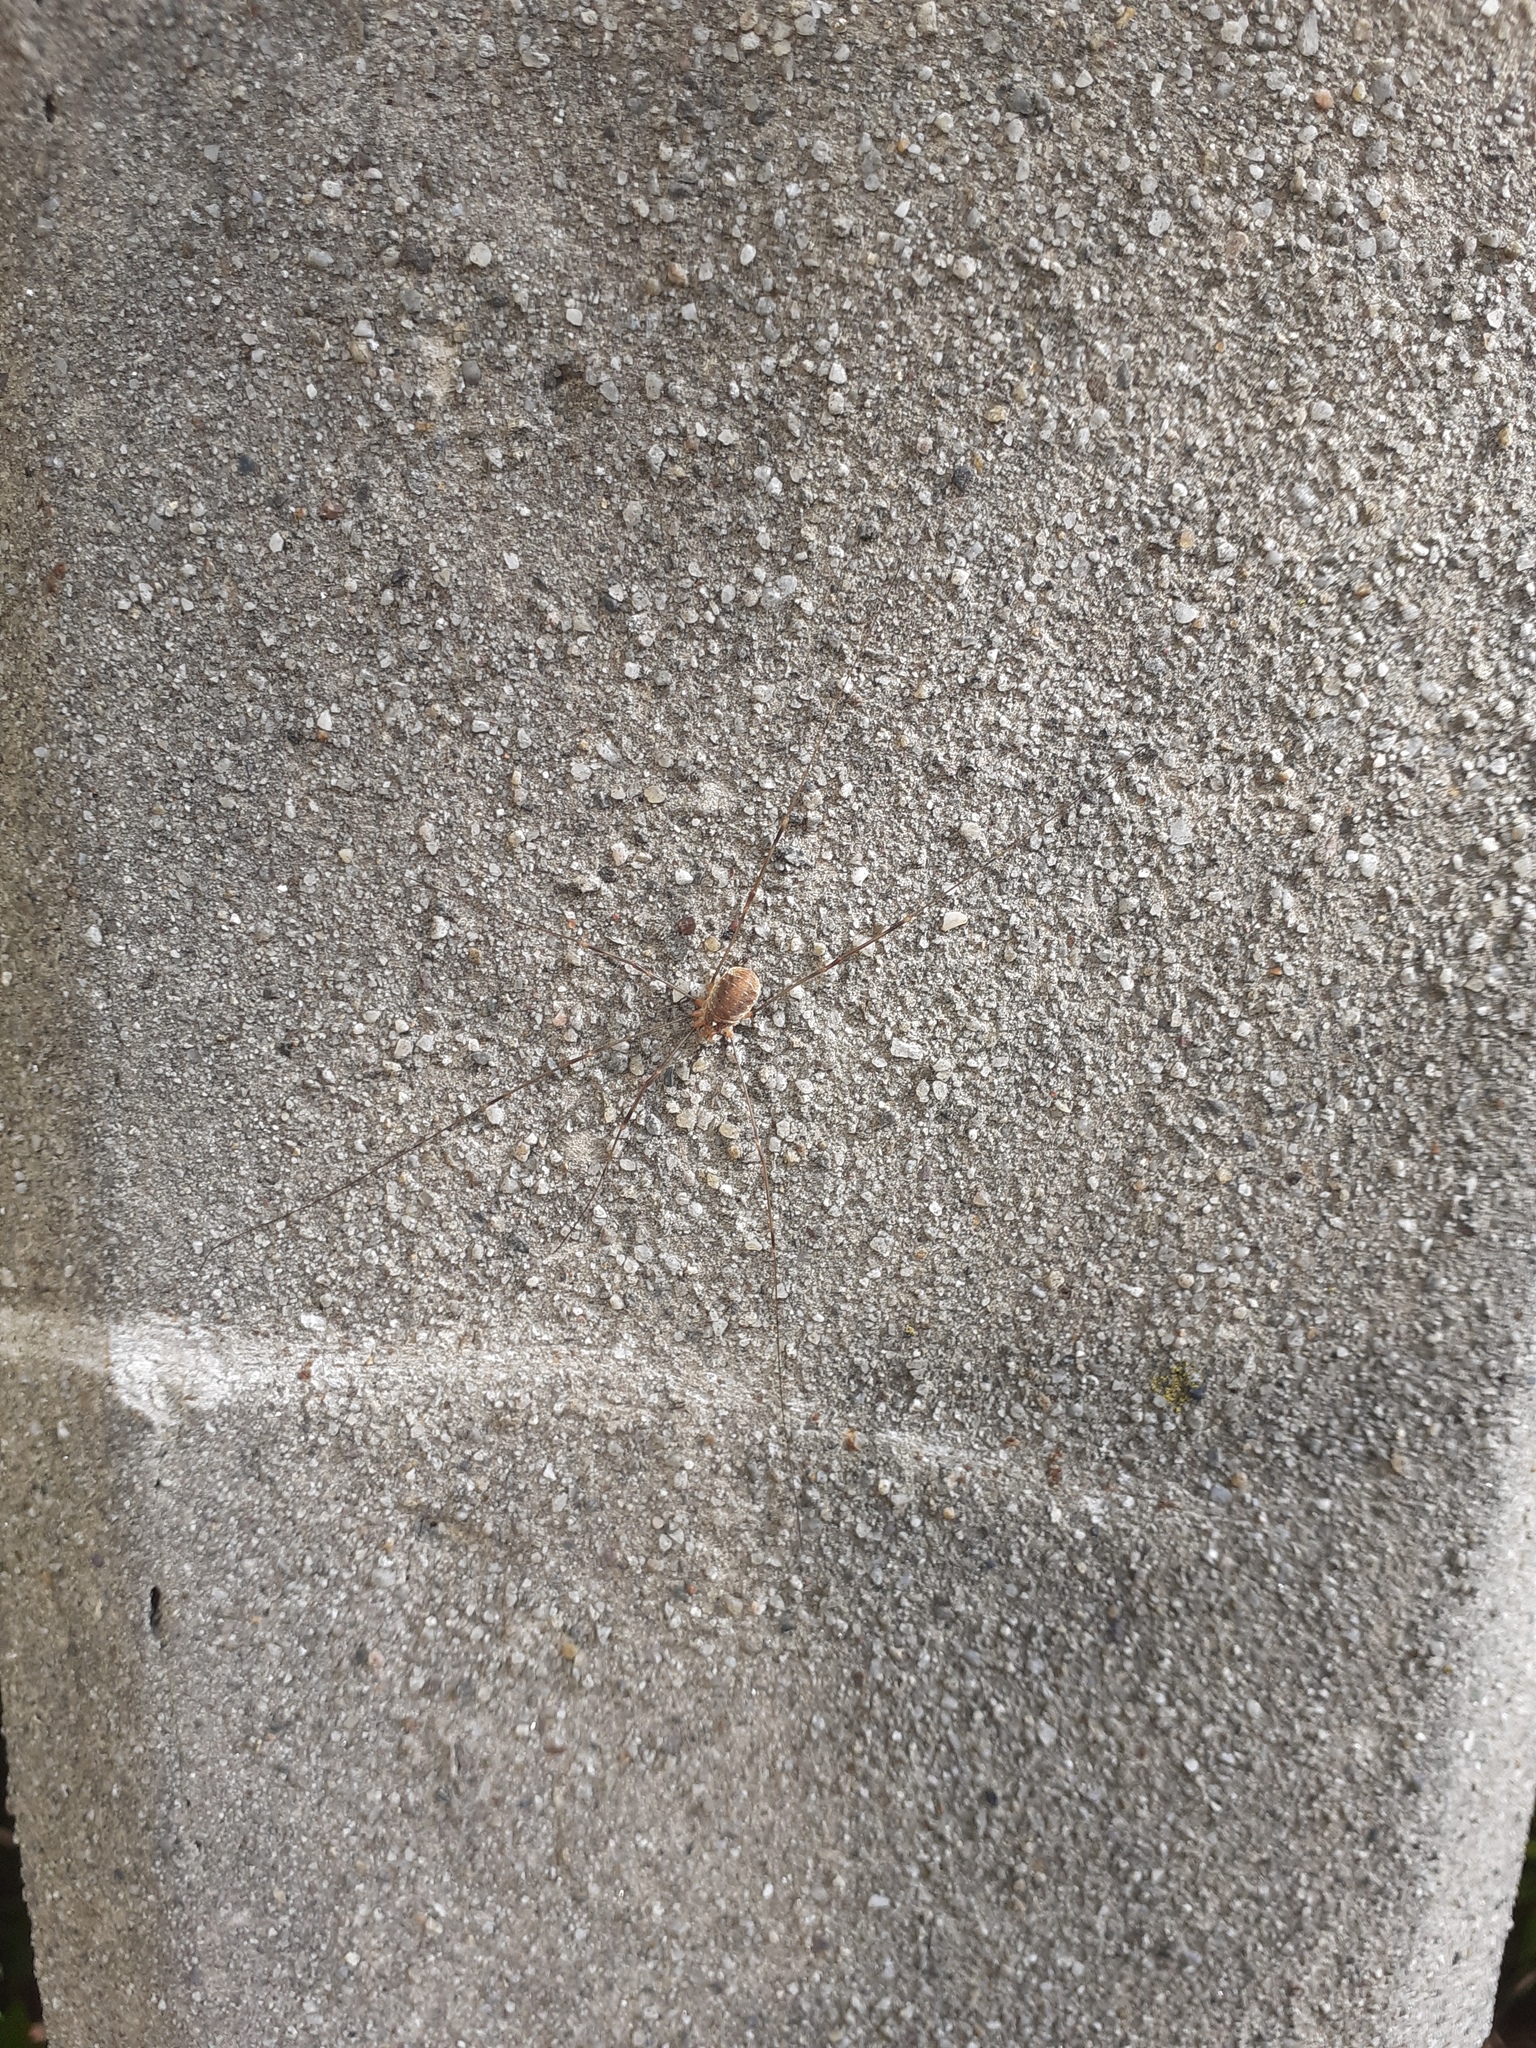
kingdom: Animalia
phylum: Arthropoda
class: Arachnida
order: Opiliones
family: Phalangiidae
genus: Opilio
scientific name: Opilio canestrinii
